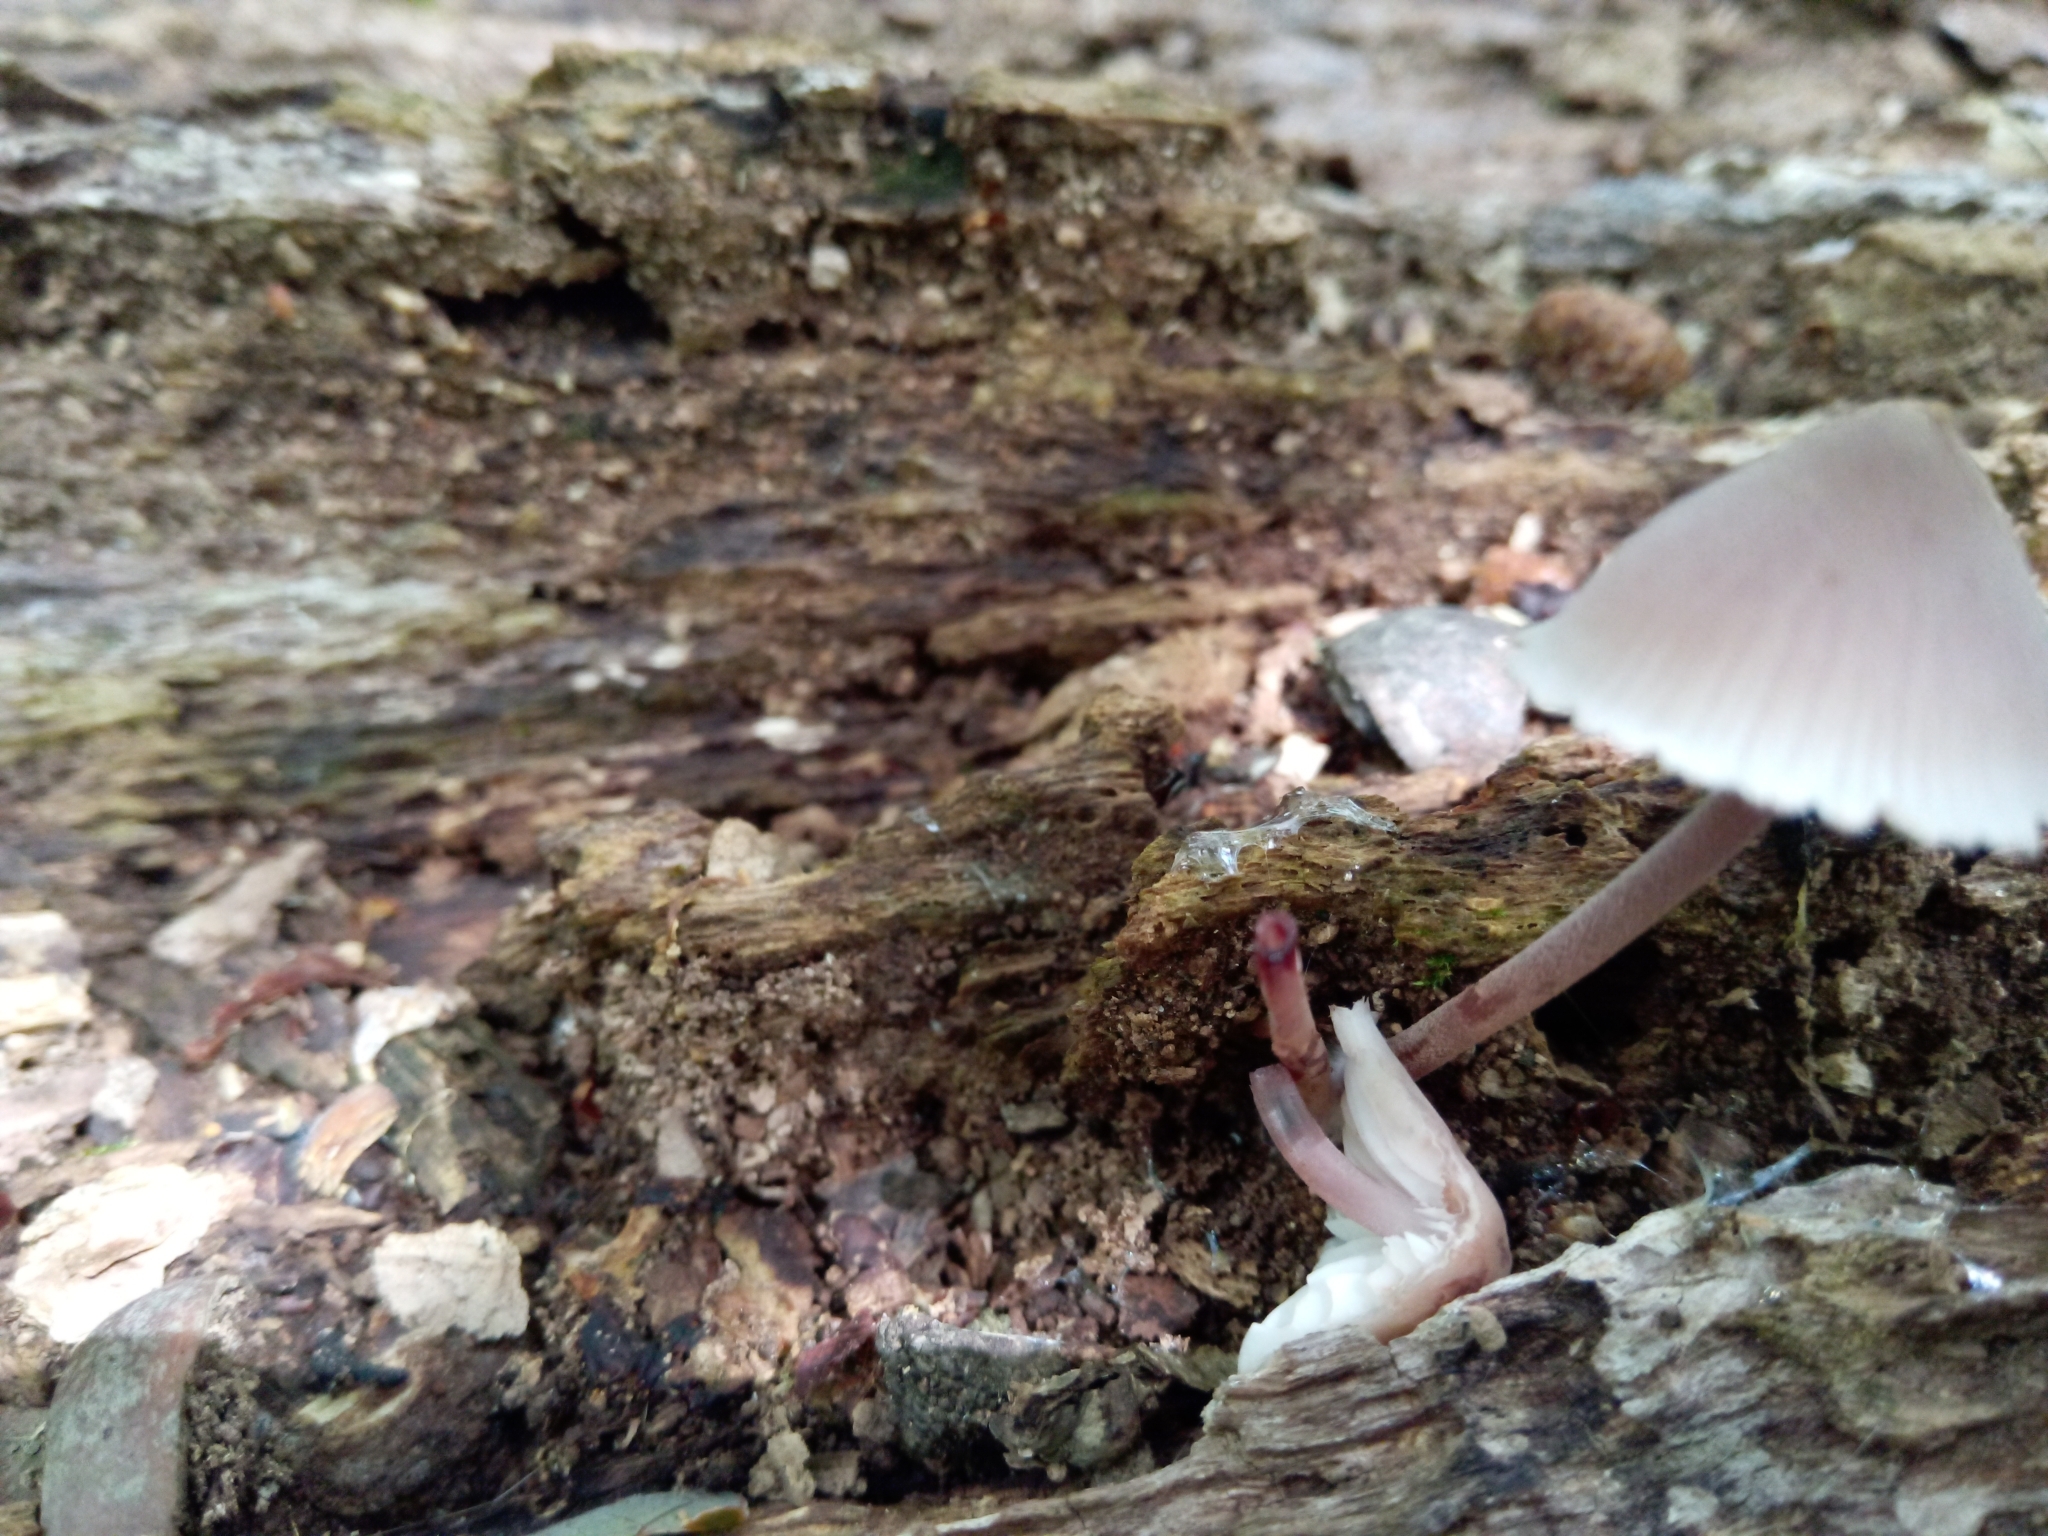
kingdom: Fungi
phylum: Basidiomycota
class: Agaricomycetes
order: Agaricales
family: Mycenaceae
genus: Mycena
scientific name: Mycena haematopus
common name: Burgundydrop bonnet
